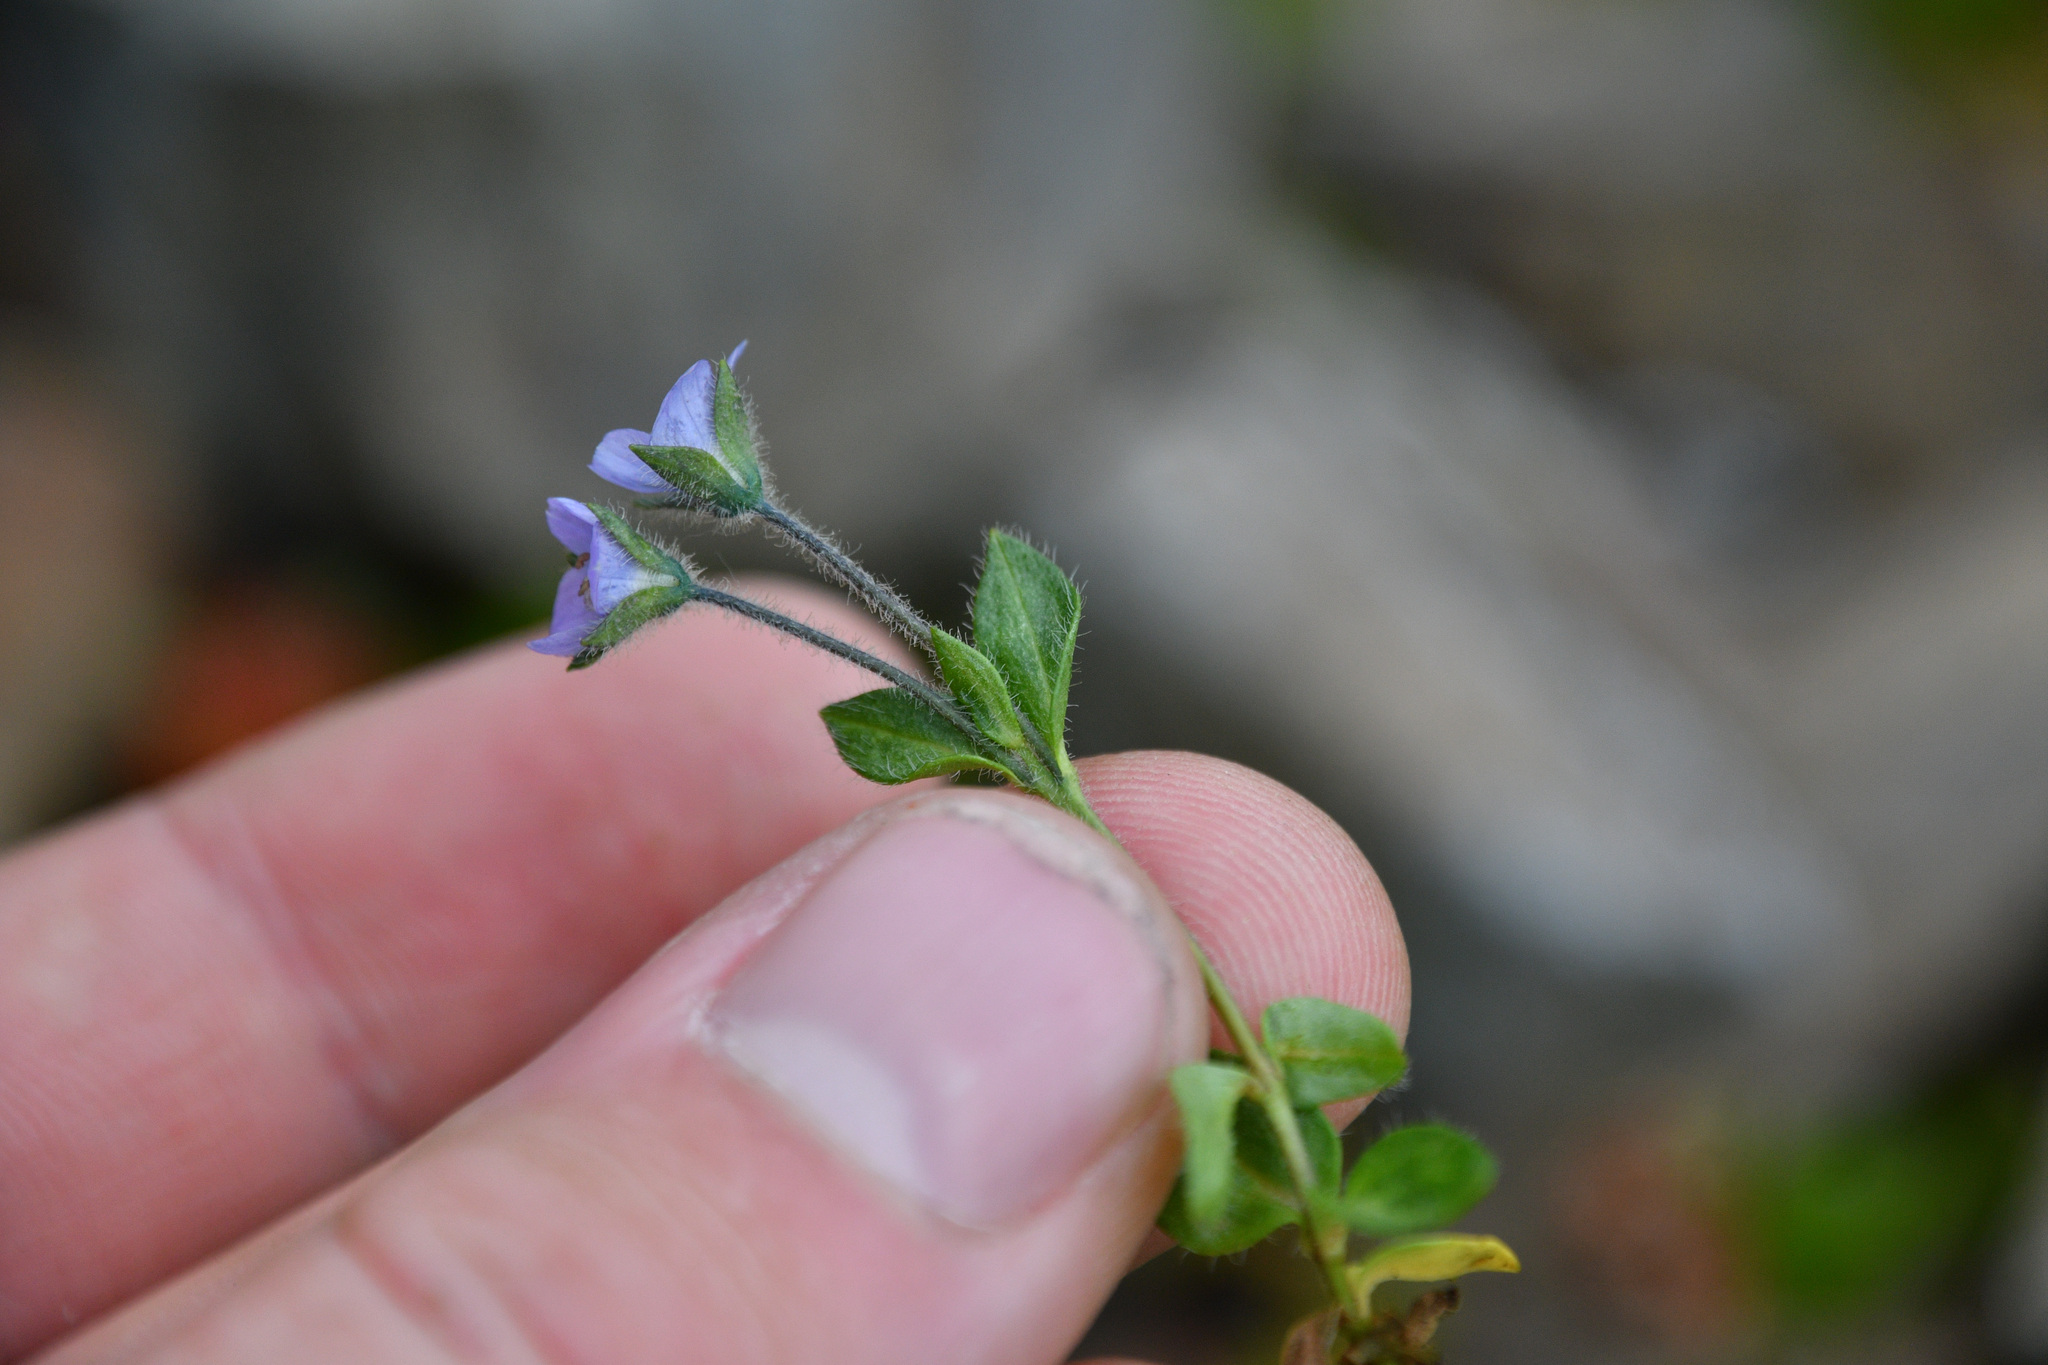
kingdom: Plantae
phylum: Tracheophyta
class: Magnoliopsida
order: Lamiales
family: Plantaginaceae
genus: Veronica
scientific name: Veronica wormskjoldii
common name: American alpine speedwell
